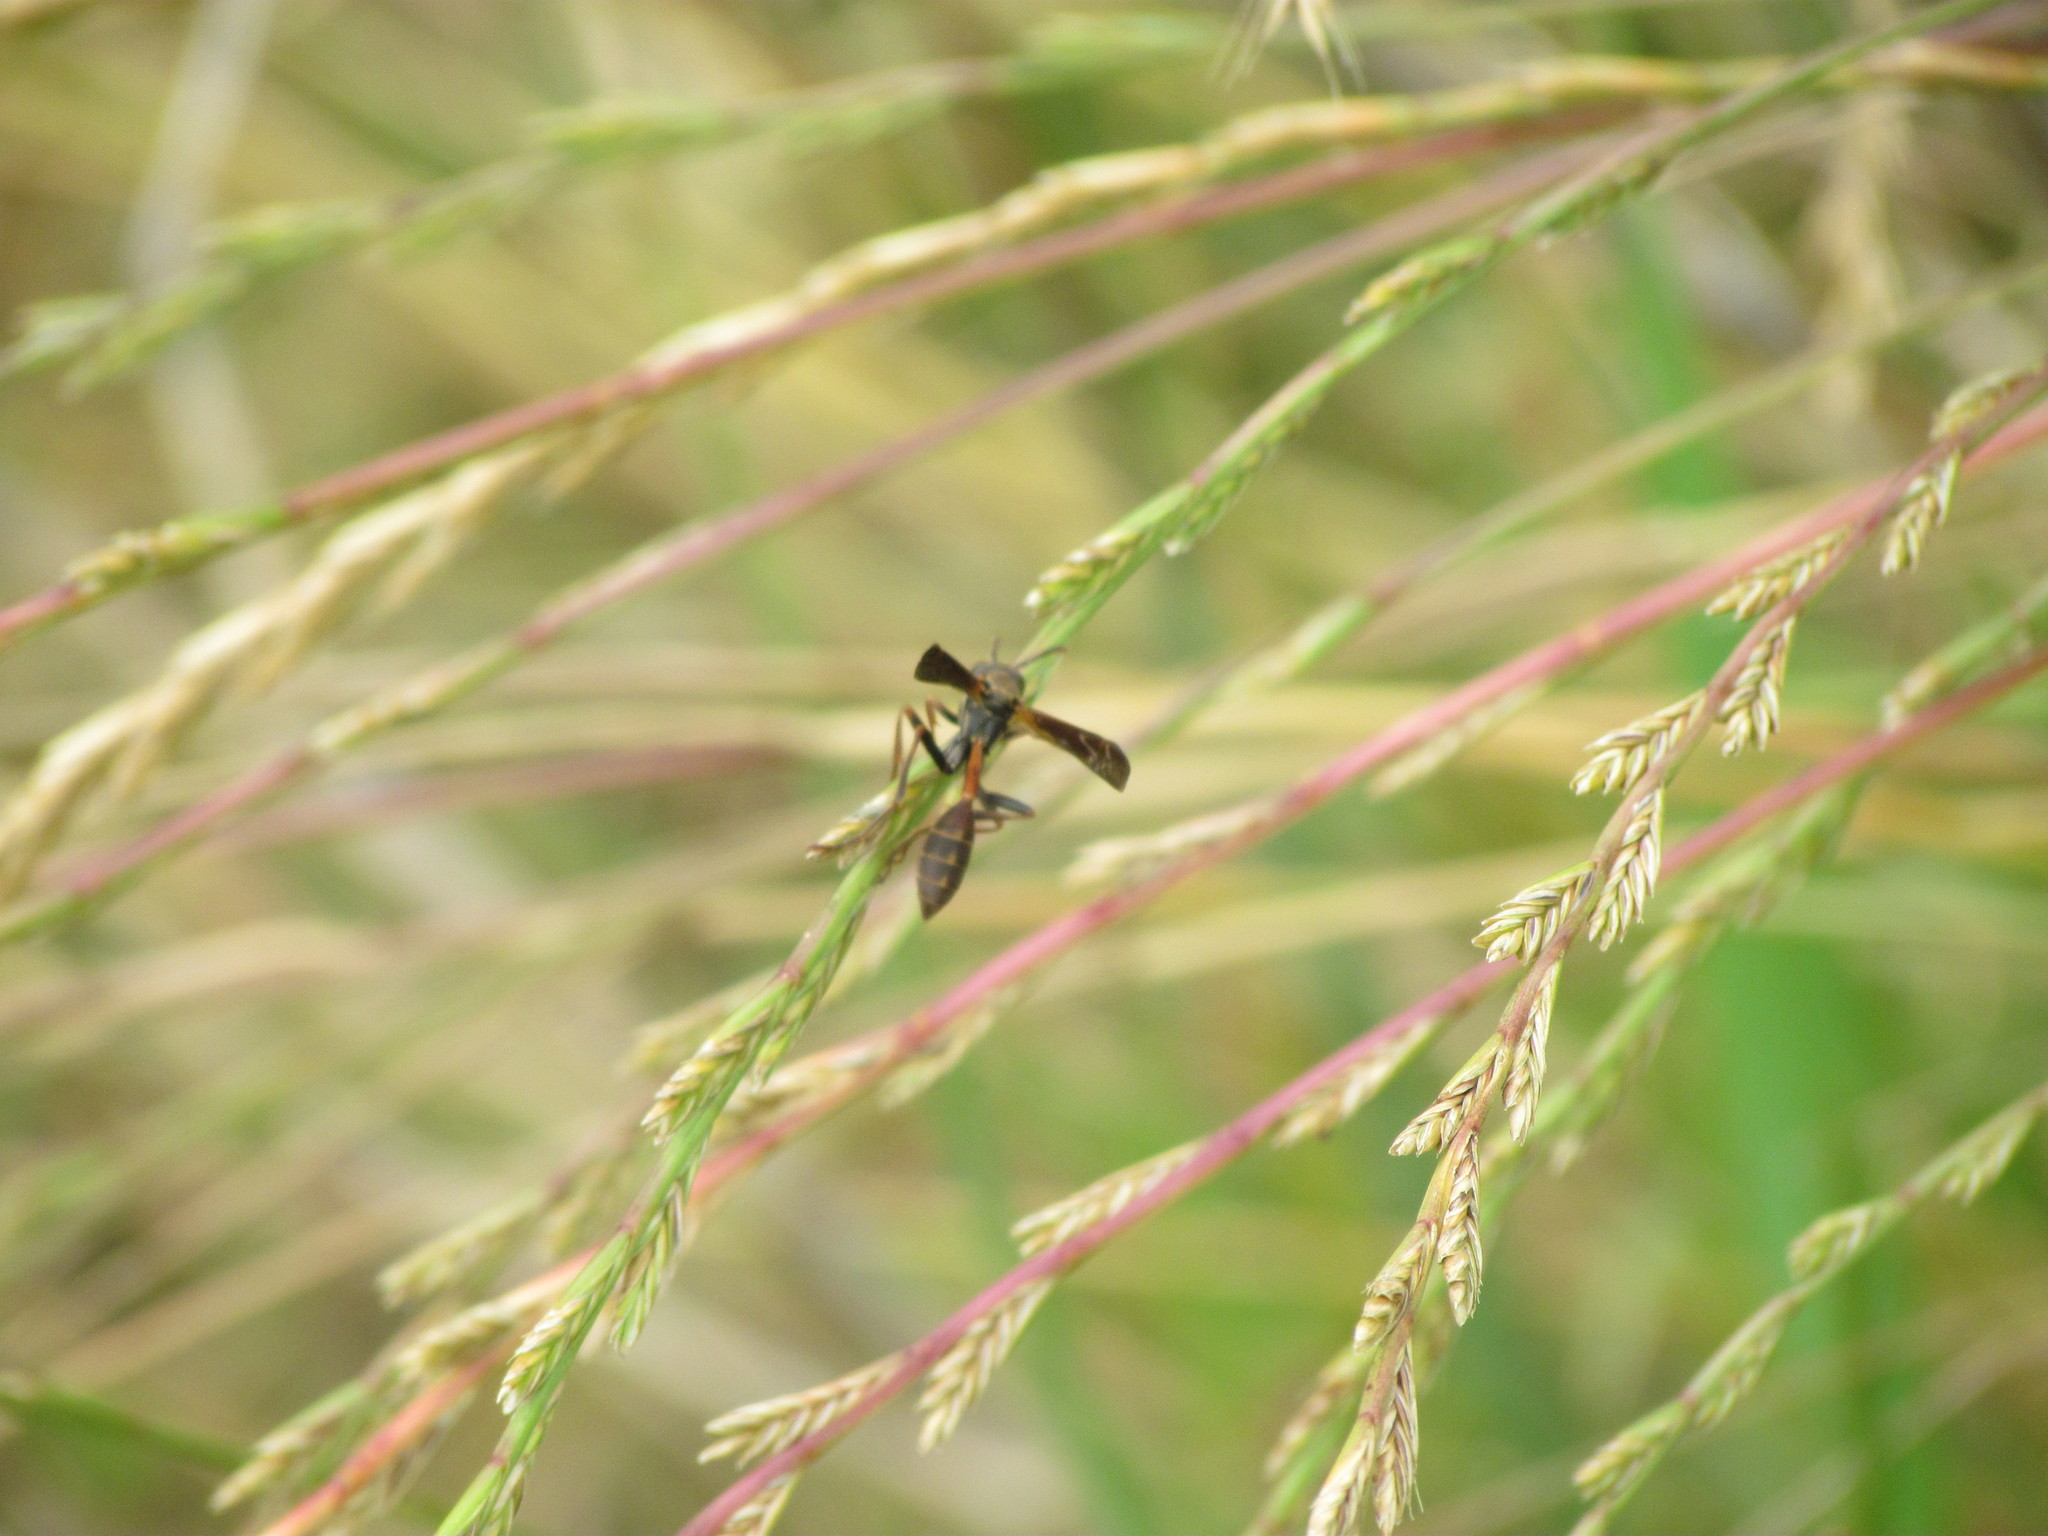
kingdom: Animalia
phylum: Arthropoda
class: Insecta
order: Hymenoptera
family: Vespidae
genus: Mischocyttarus
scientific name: Mischocyttarus drewseni
